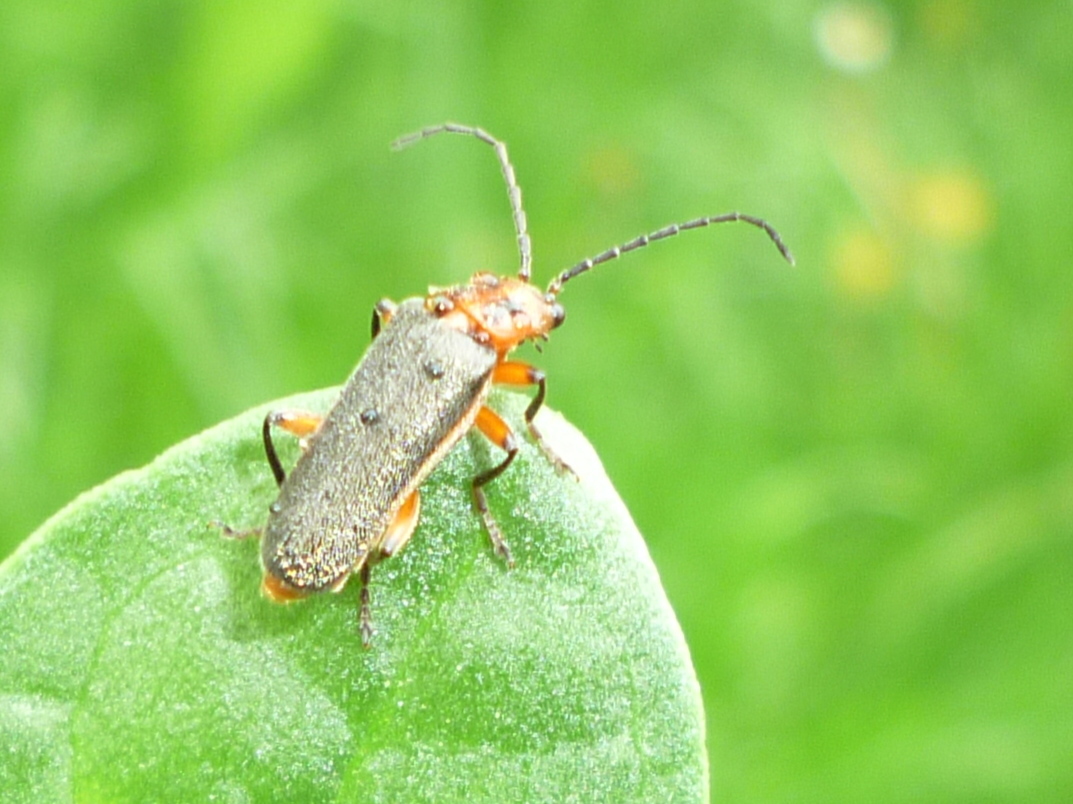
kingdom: Animalia
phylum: Arthropoda
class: Insecta
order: Coleoptera
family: Cantharidae
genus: Atalantycha
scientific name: Atalantycha bilineata
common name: Two-lined leatherwing
